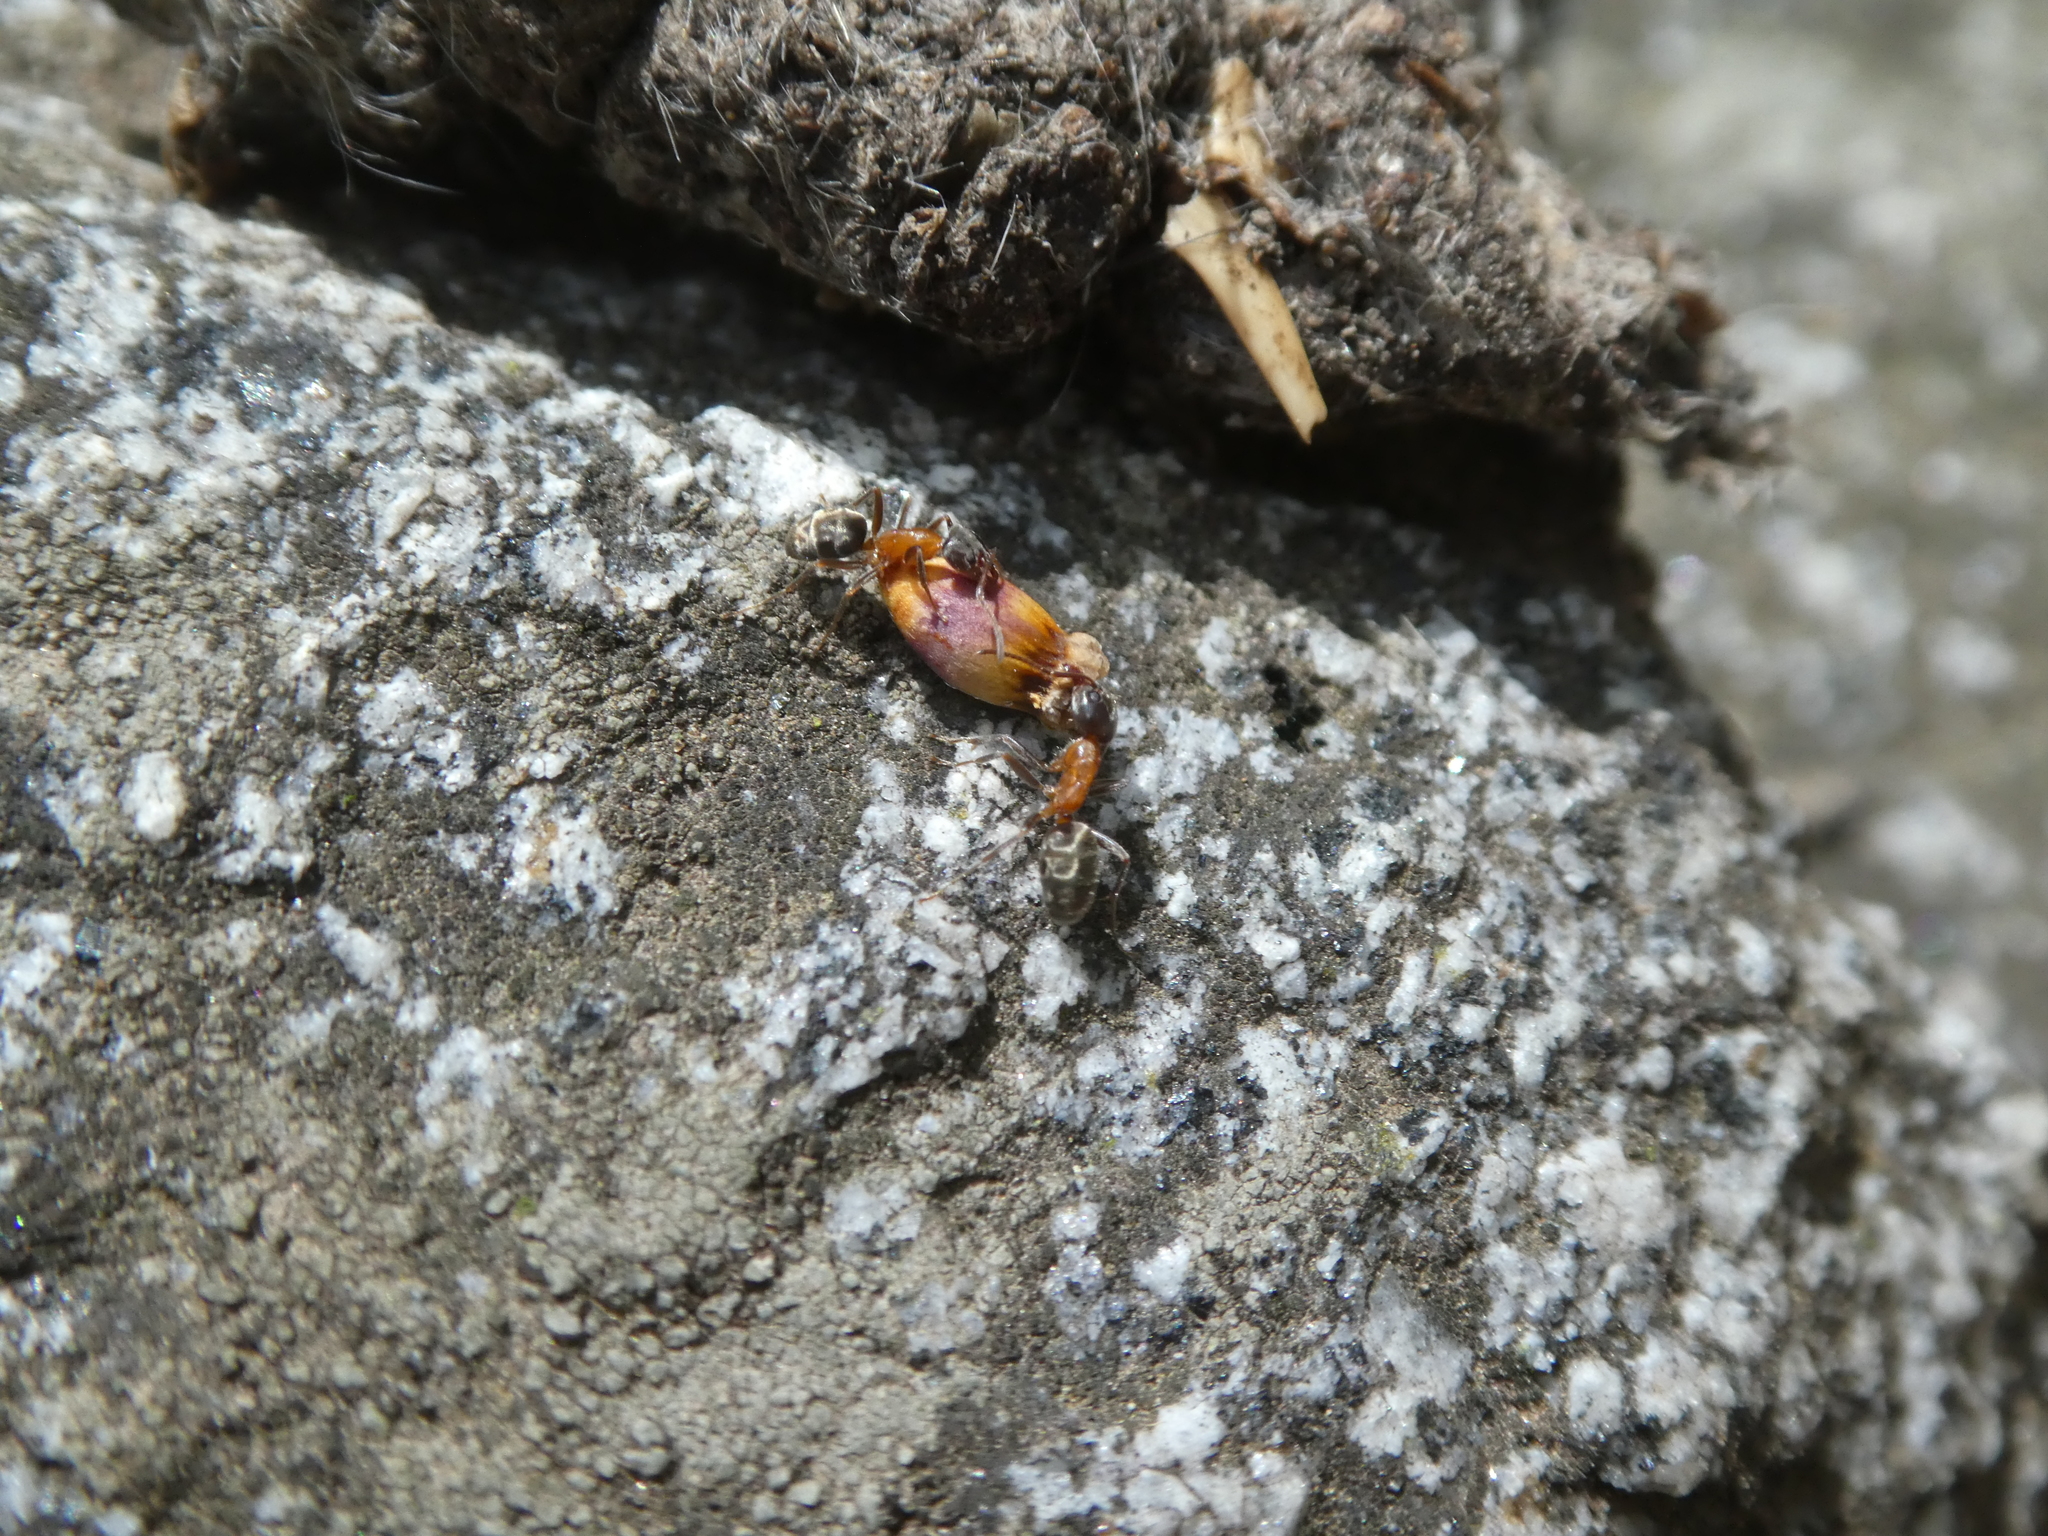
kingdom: Animalia
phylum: Arthropoda
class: Insecta
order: Hymenoptera
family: Formicidae
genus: Liometopum
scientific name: Liometopum occidentale
